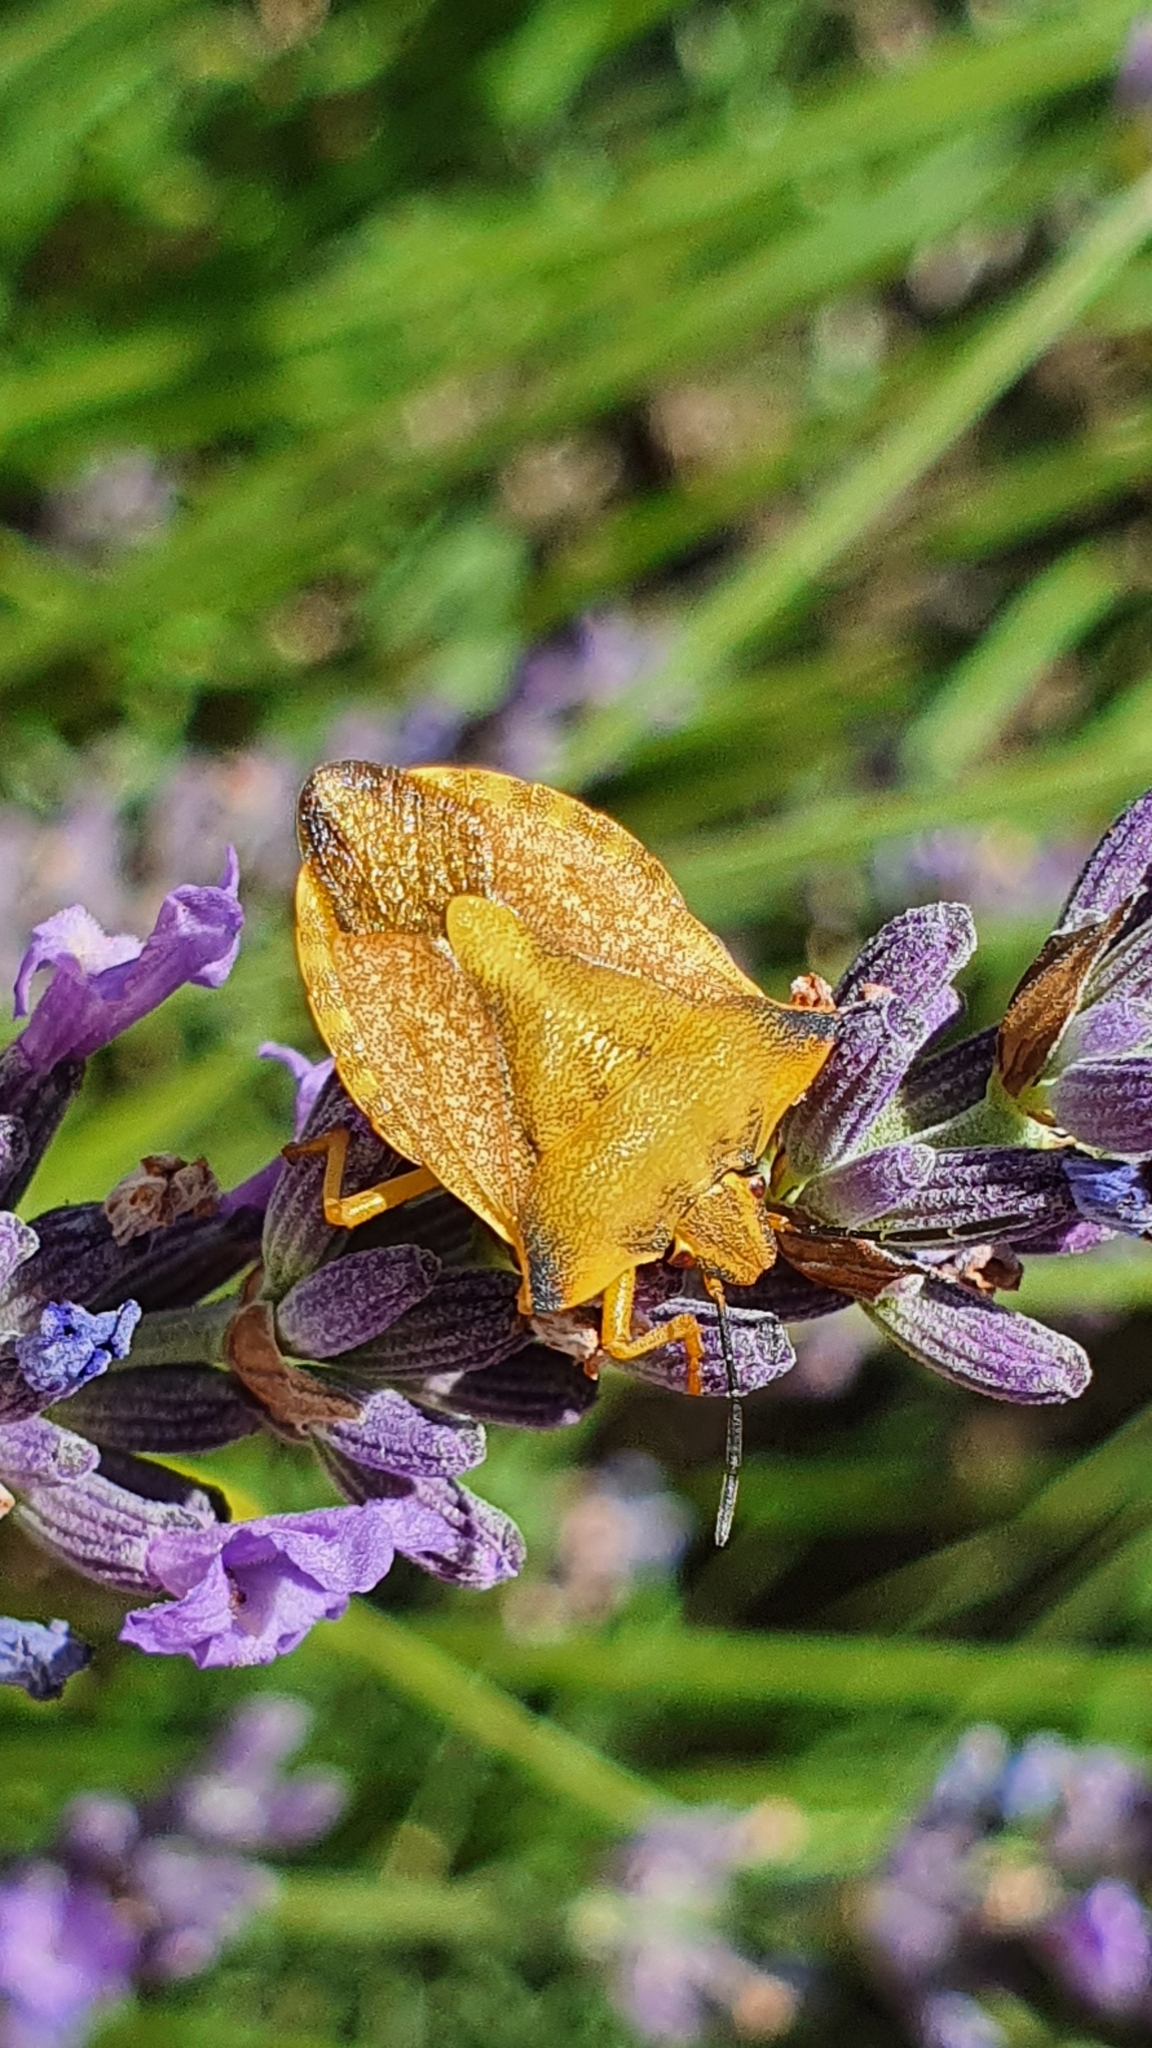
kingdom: Animalia
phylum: Arthropoda
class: Insecta
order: Hemiptera
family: Pentatomidae
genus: Carpocoris
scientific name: Carpocoris fuscispinus
